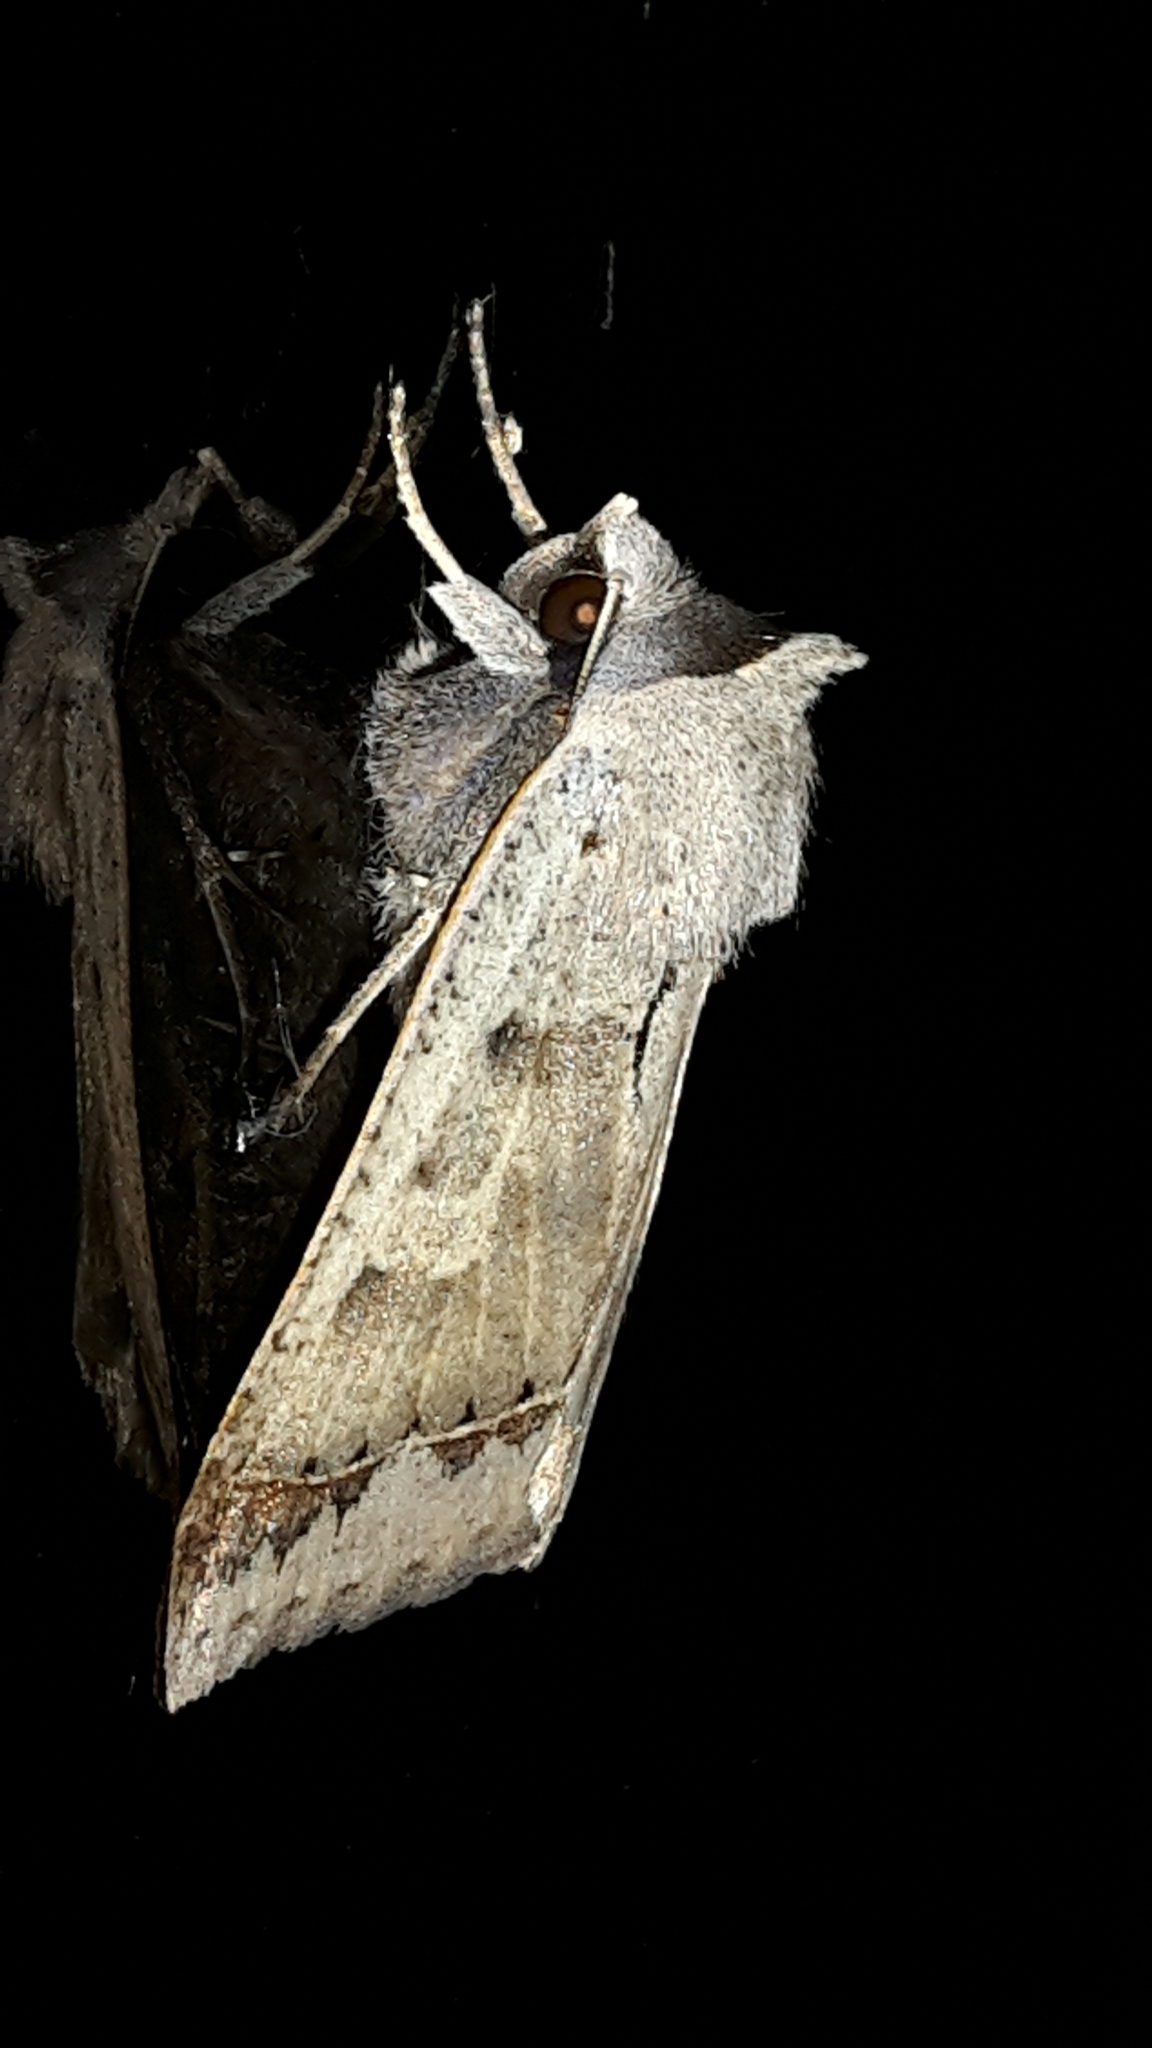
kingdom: Animalia
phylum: Arthropoda
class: Insecta
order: Lepidoptera
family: Erebidae
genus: Pantydia
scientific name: Pantydia sparsa
